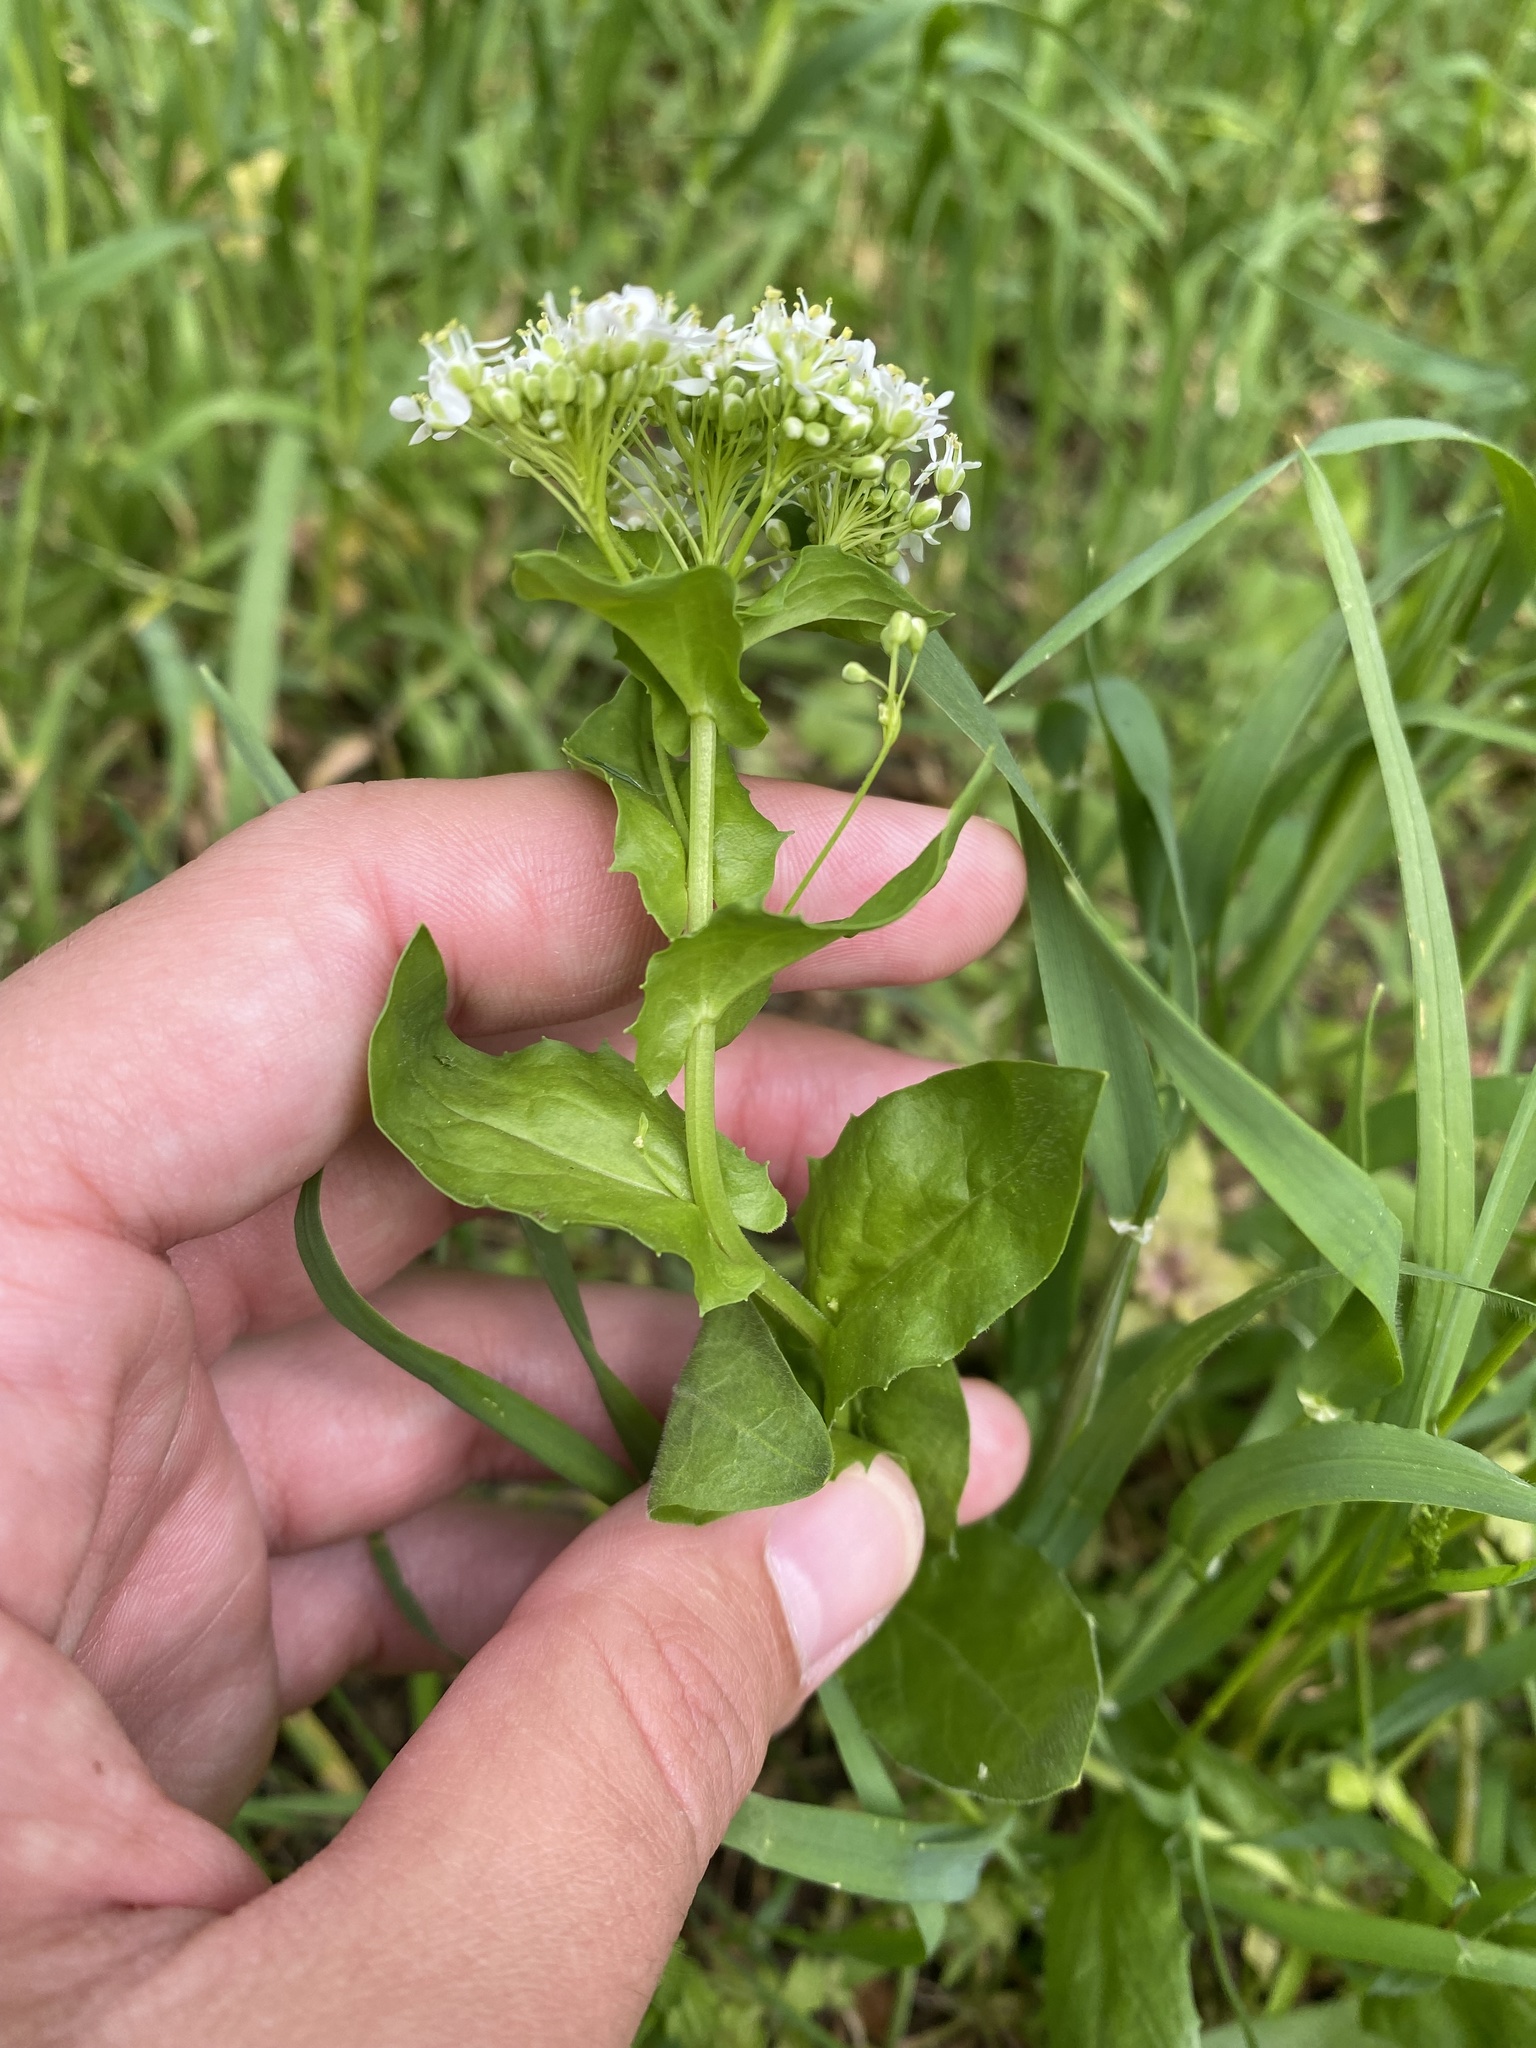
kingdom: Plantae
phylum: Tracheophyta
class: Magnoliopsida
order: Brassicales
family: Brassicaceae
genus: Lepidium
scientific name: Lepidium draba
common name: Hoary cress
